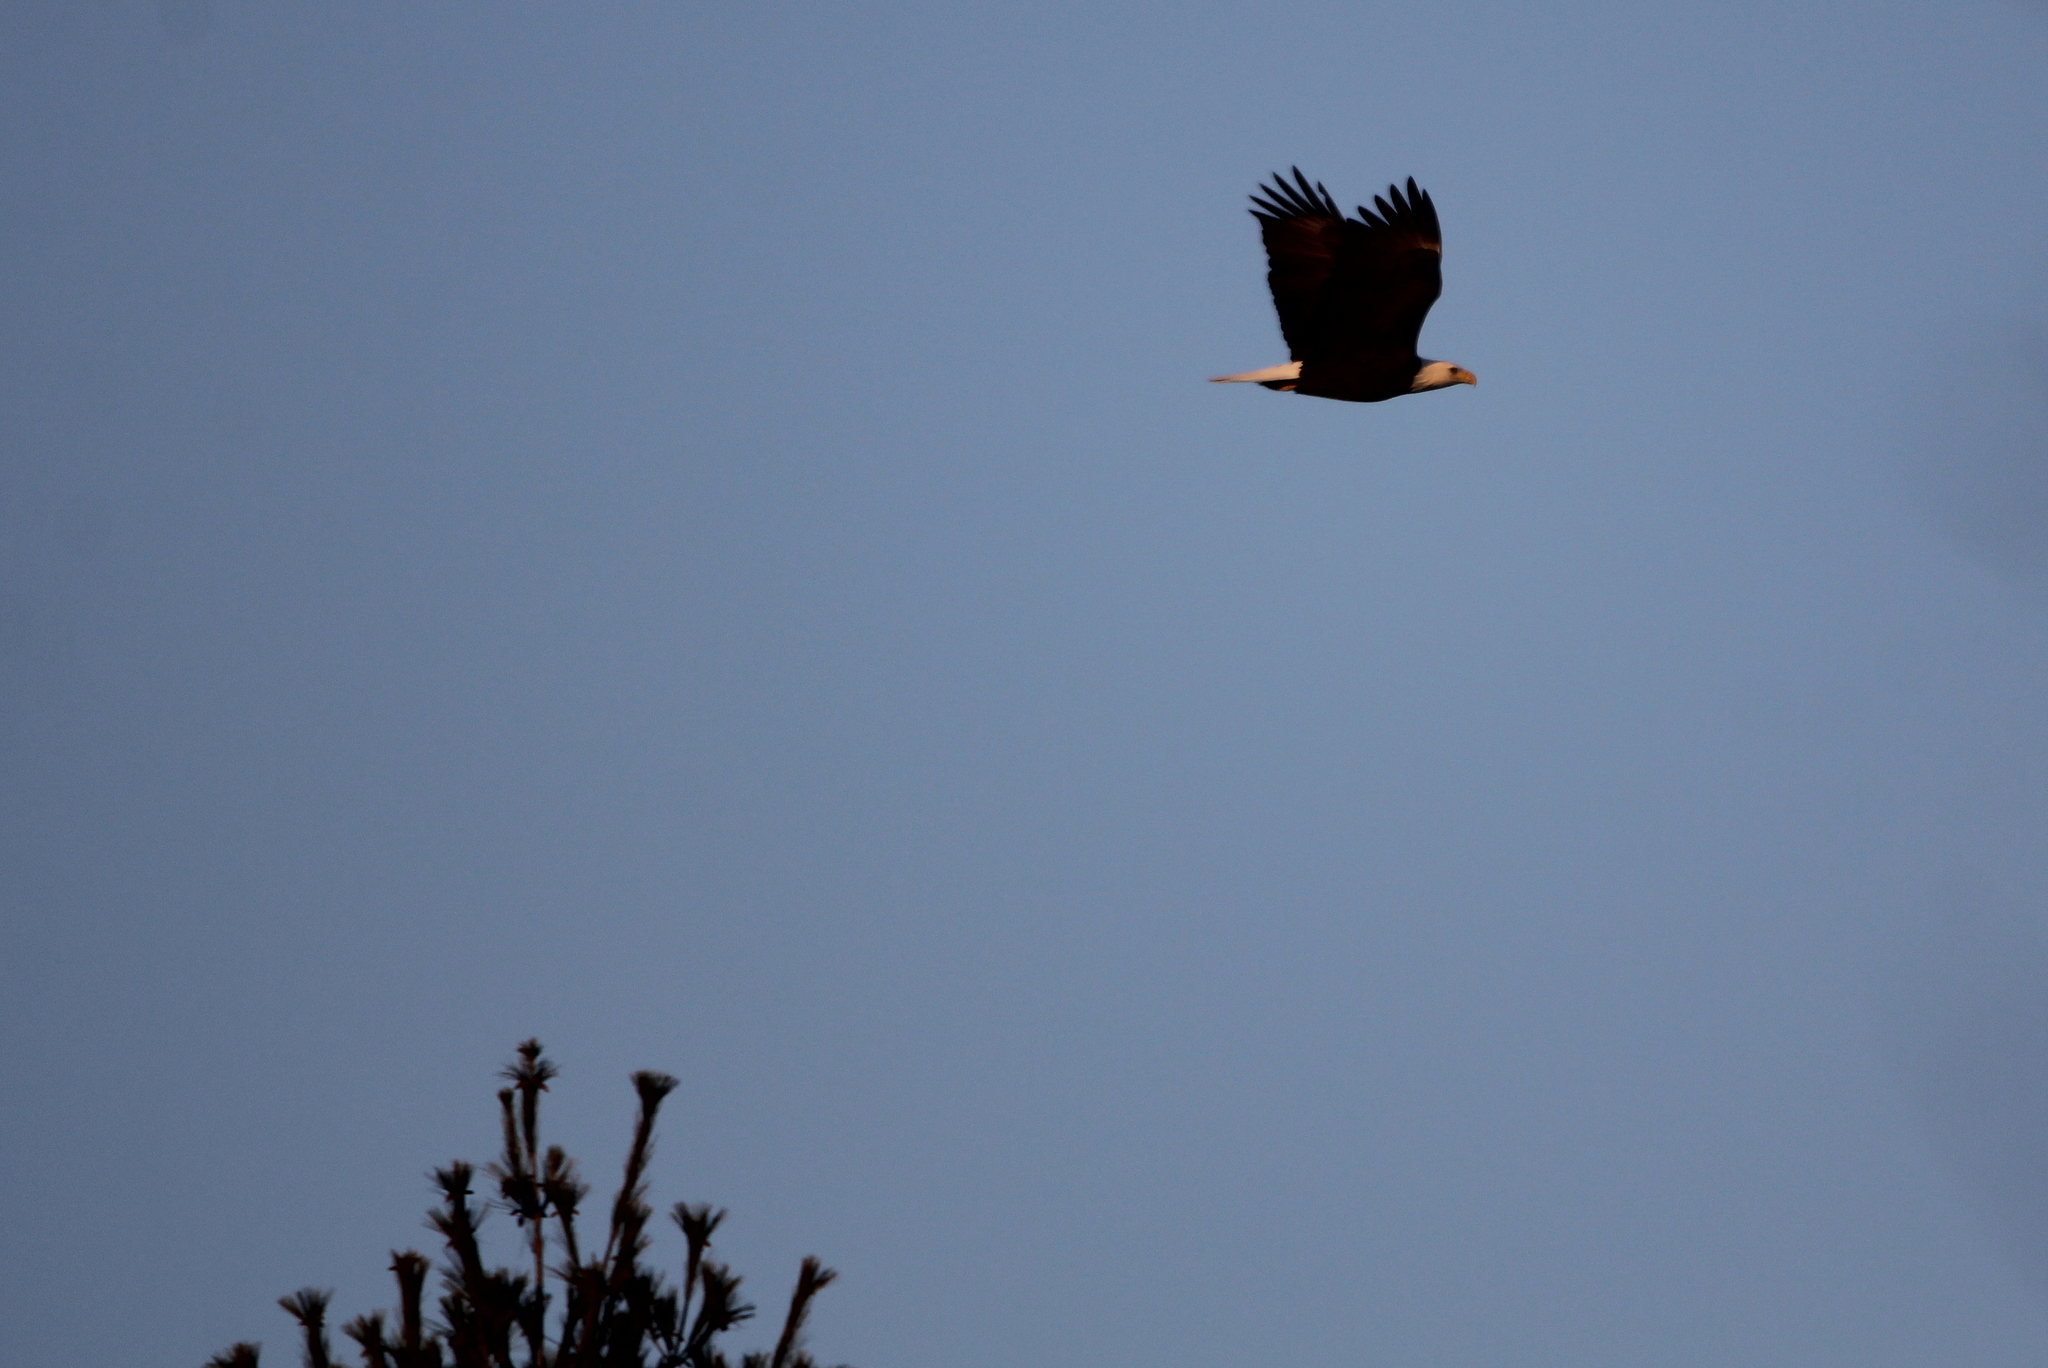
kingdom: Animalia
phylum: Chordata
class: Aves
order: Accipitriformes
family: Accipitridae
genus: Haliaeetus
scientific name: Haliaeetus leucocephalus
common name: Bald eagle
